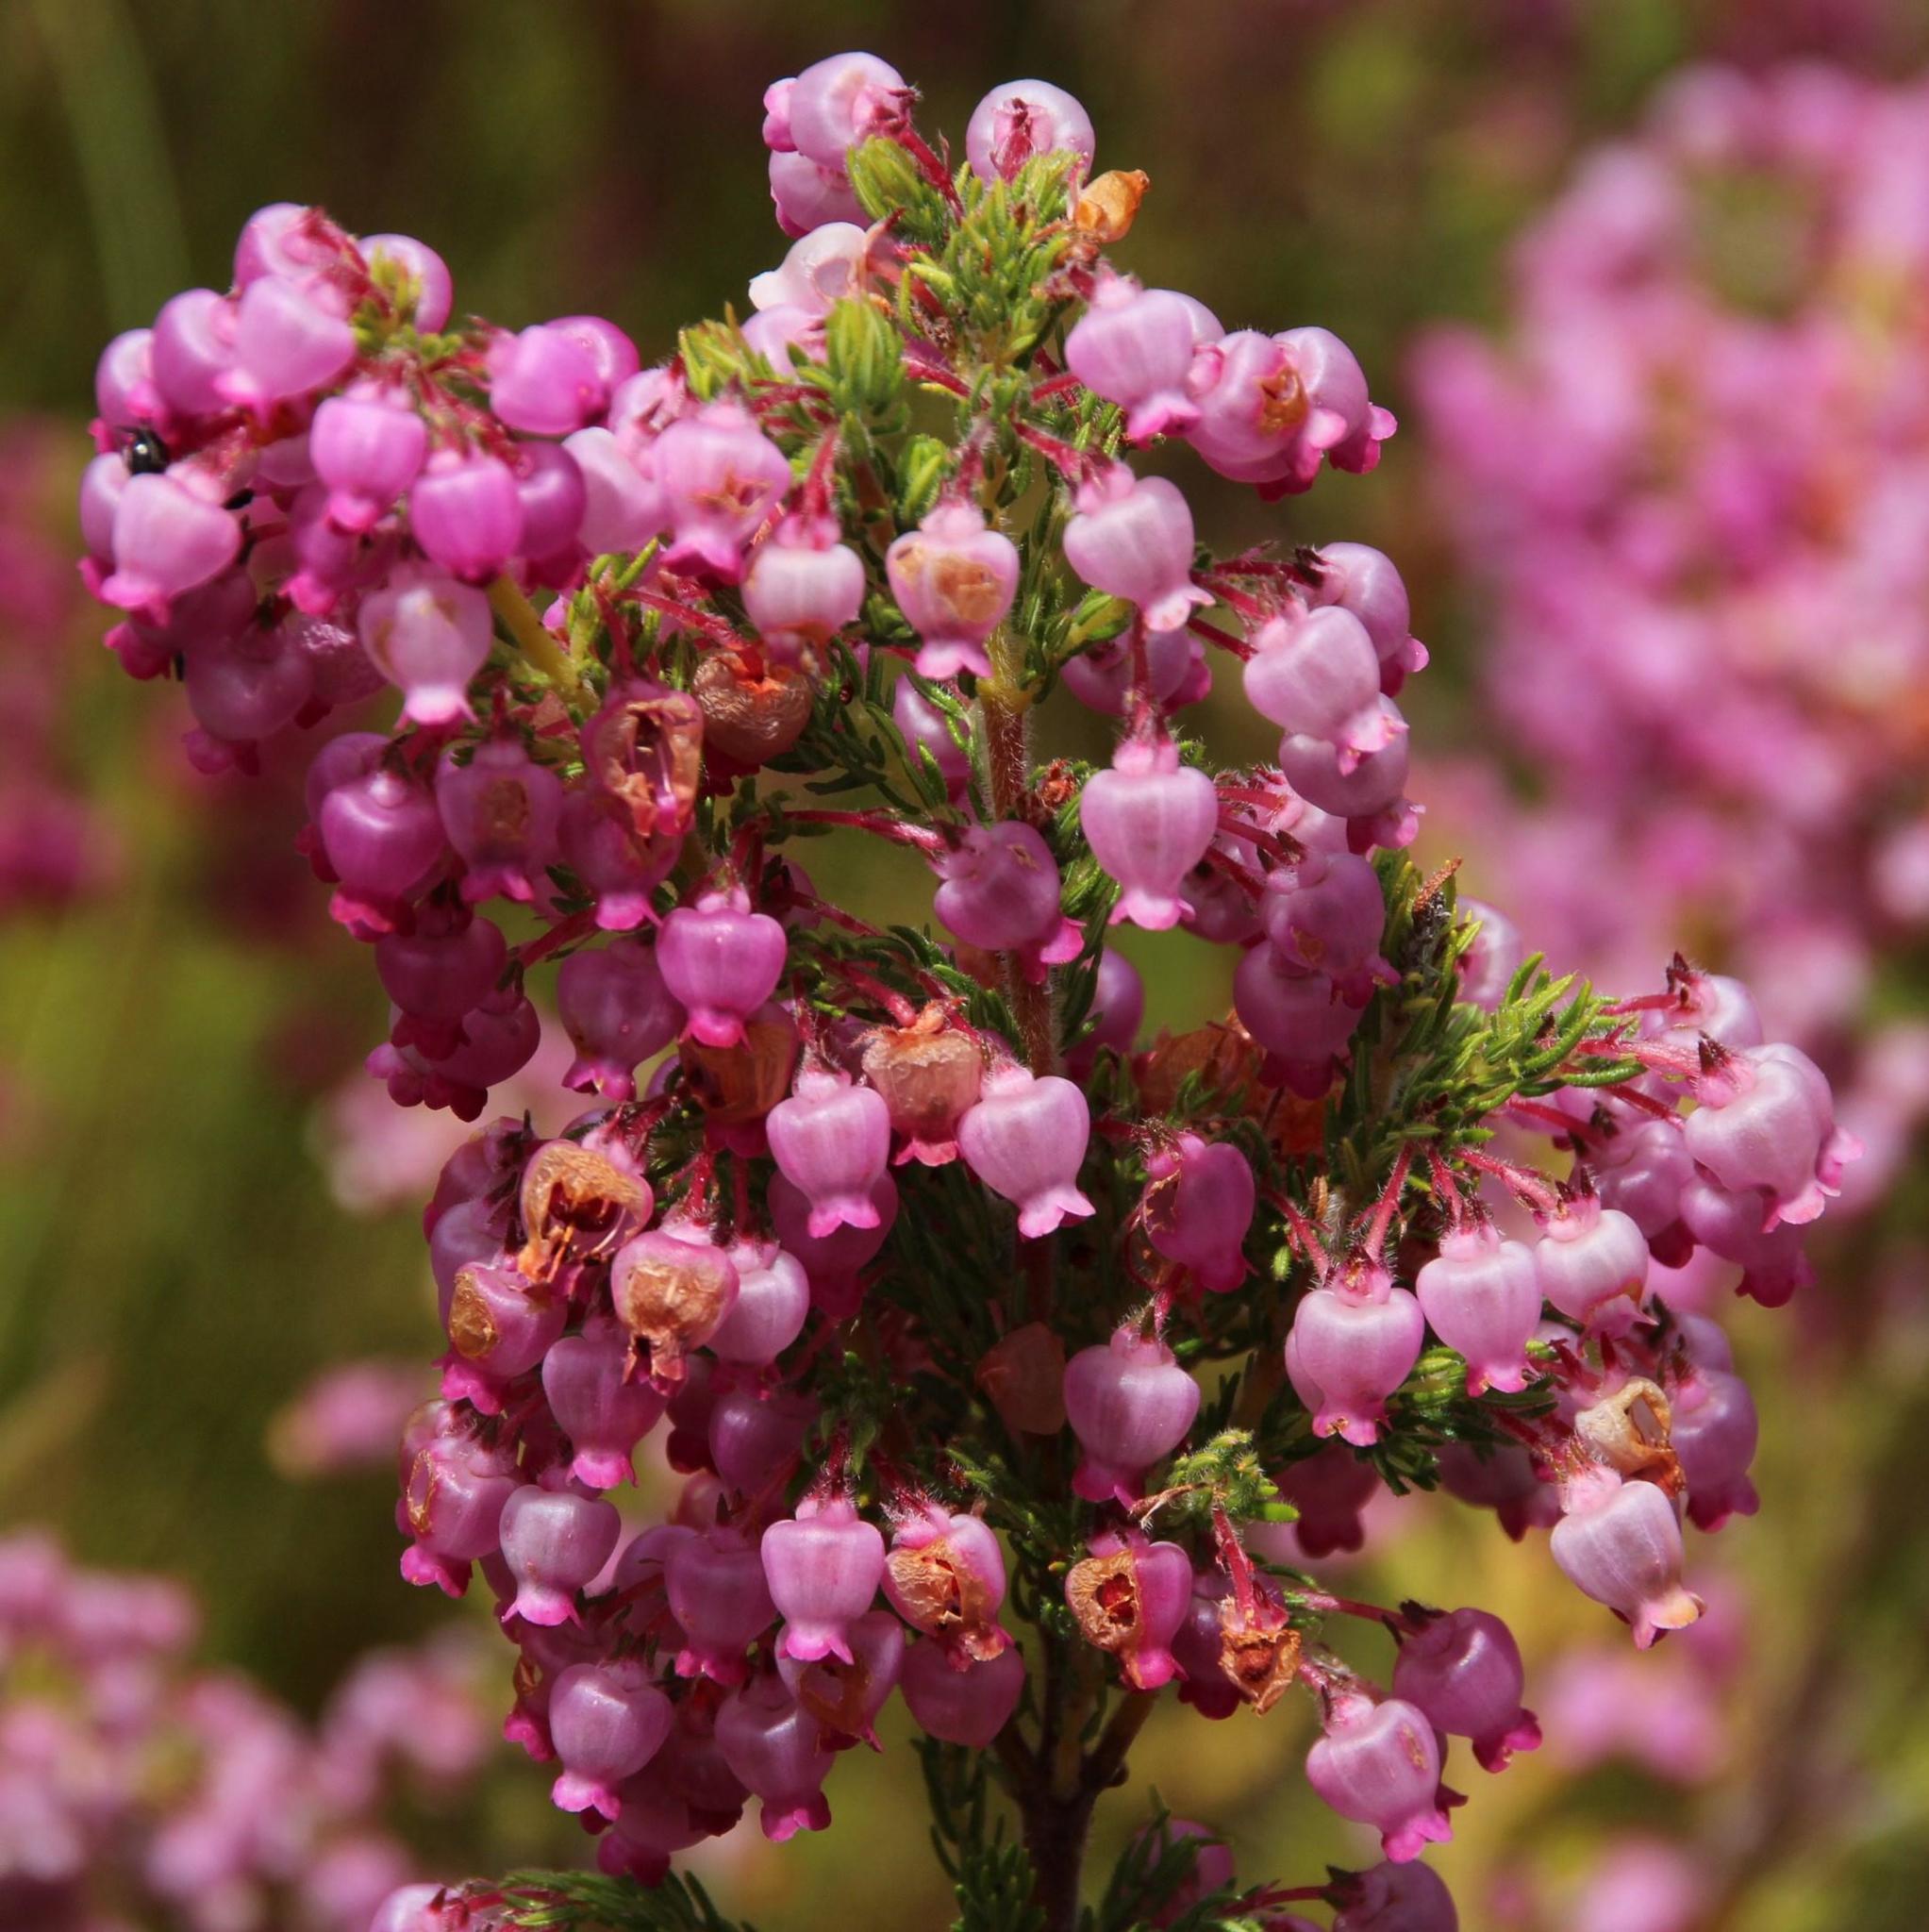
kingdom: Plantae
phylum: Tracheophyta
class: Magnoliopsida
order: Ericales
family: Ericaceae
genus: Erica
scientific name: Erica bergiana
